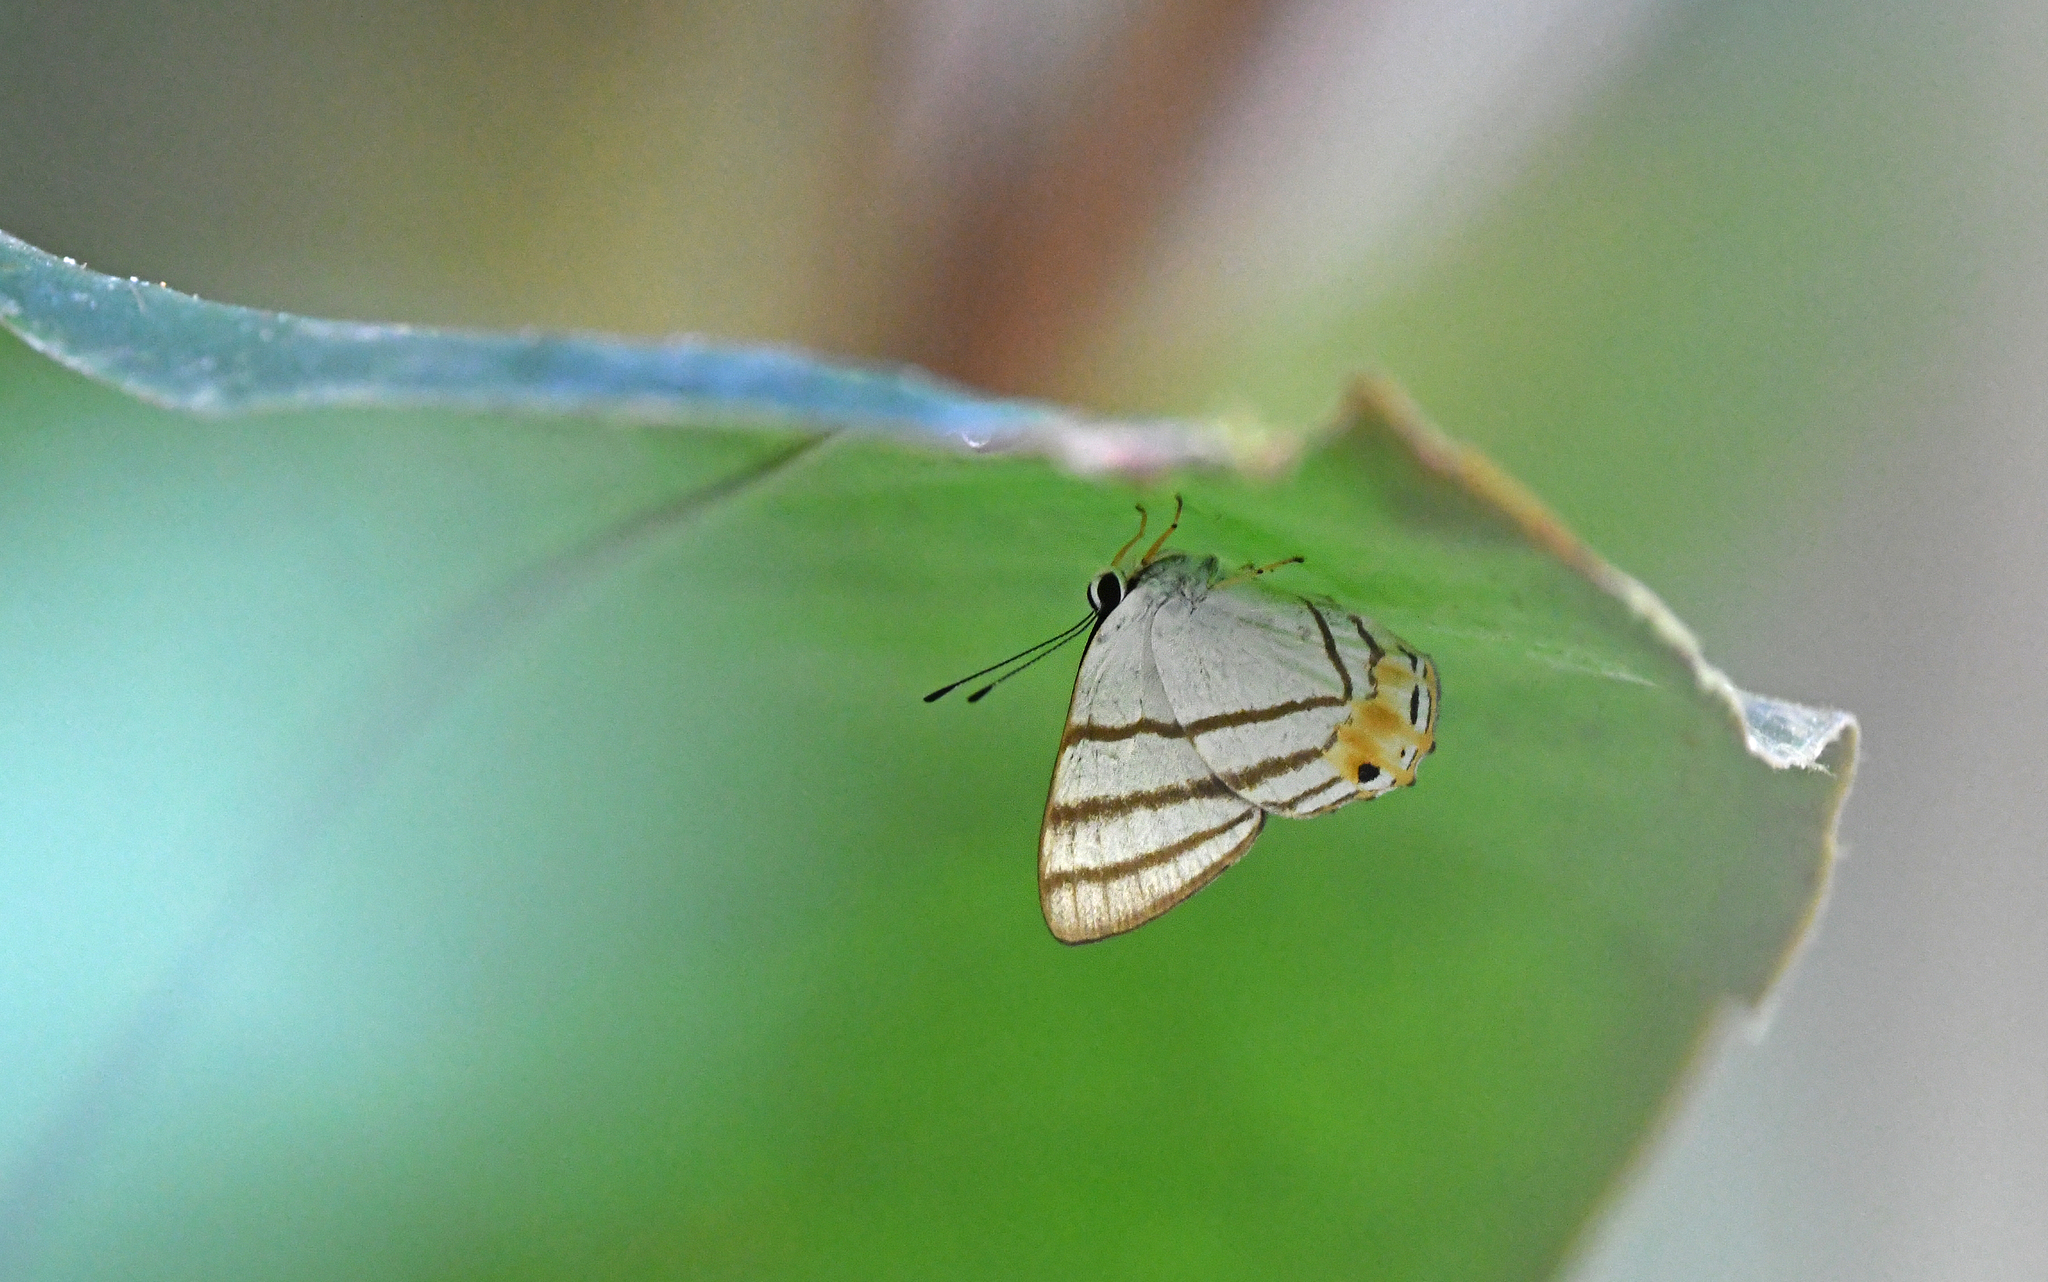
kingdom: Animalia
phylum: Arthropoda
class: Insecta
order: Lepidoptera
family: Lycaenidae
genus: Euselasia
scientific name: Euselasia corduena
